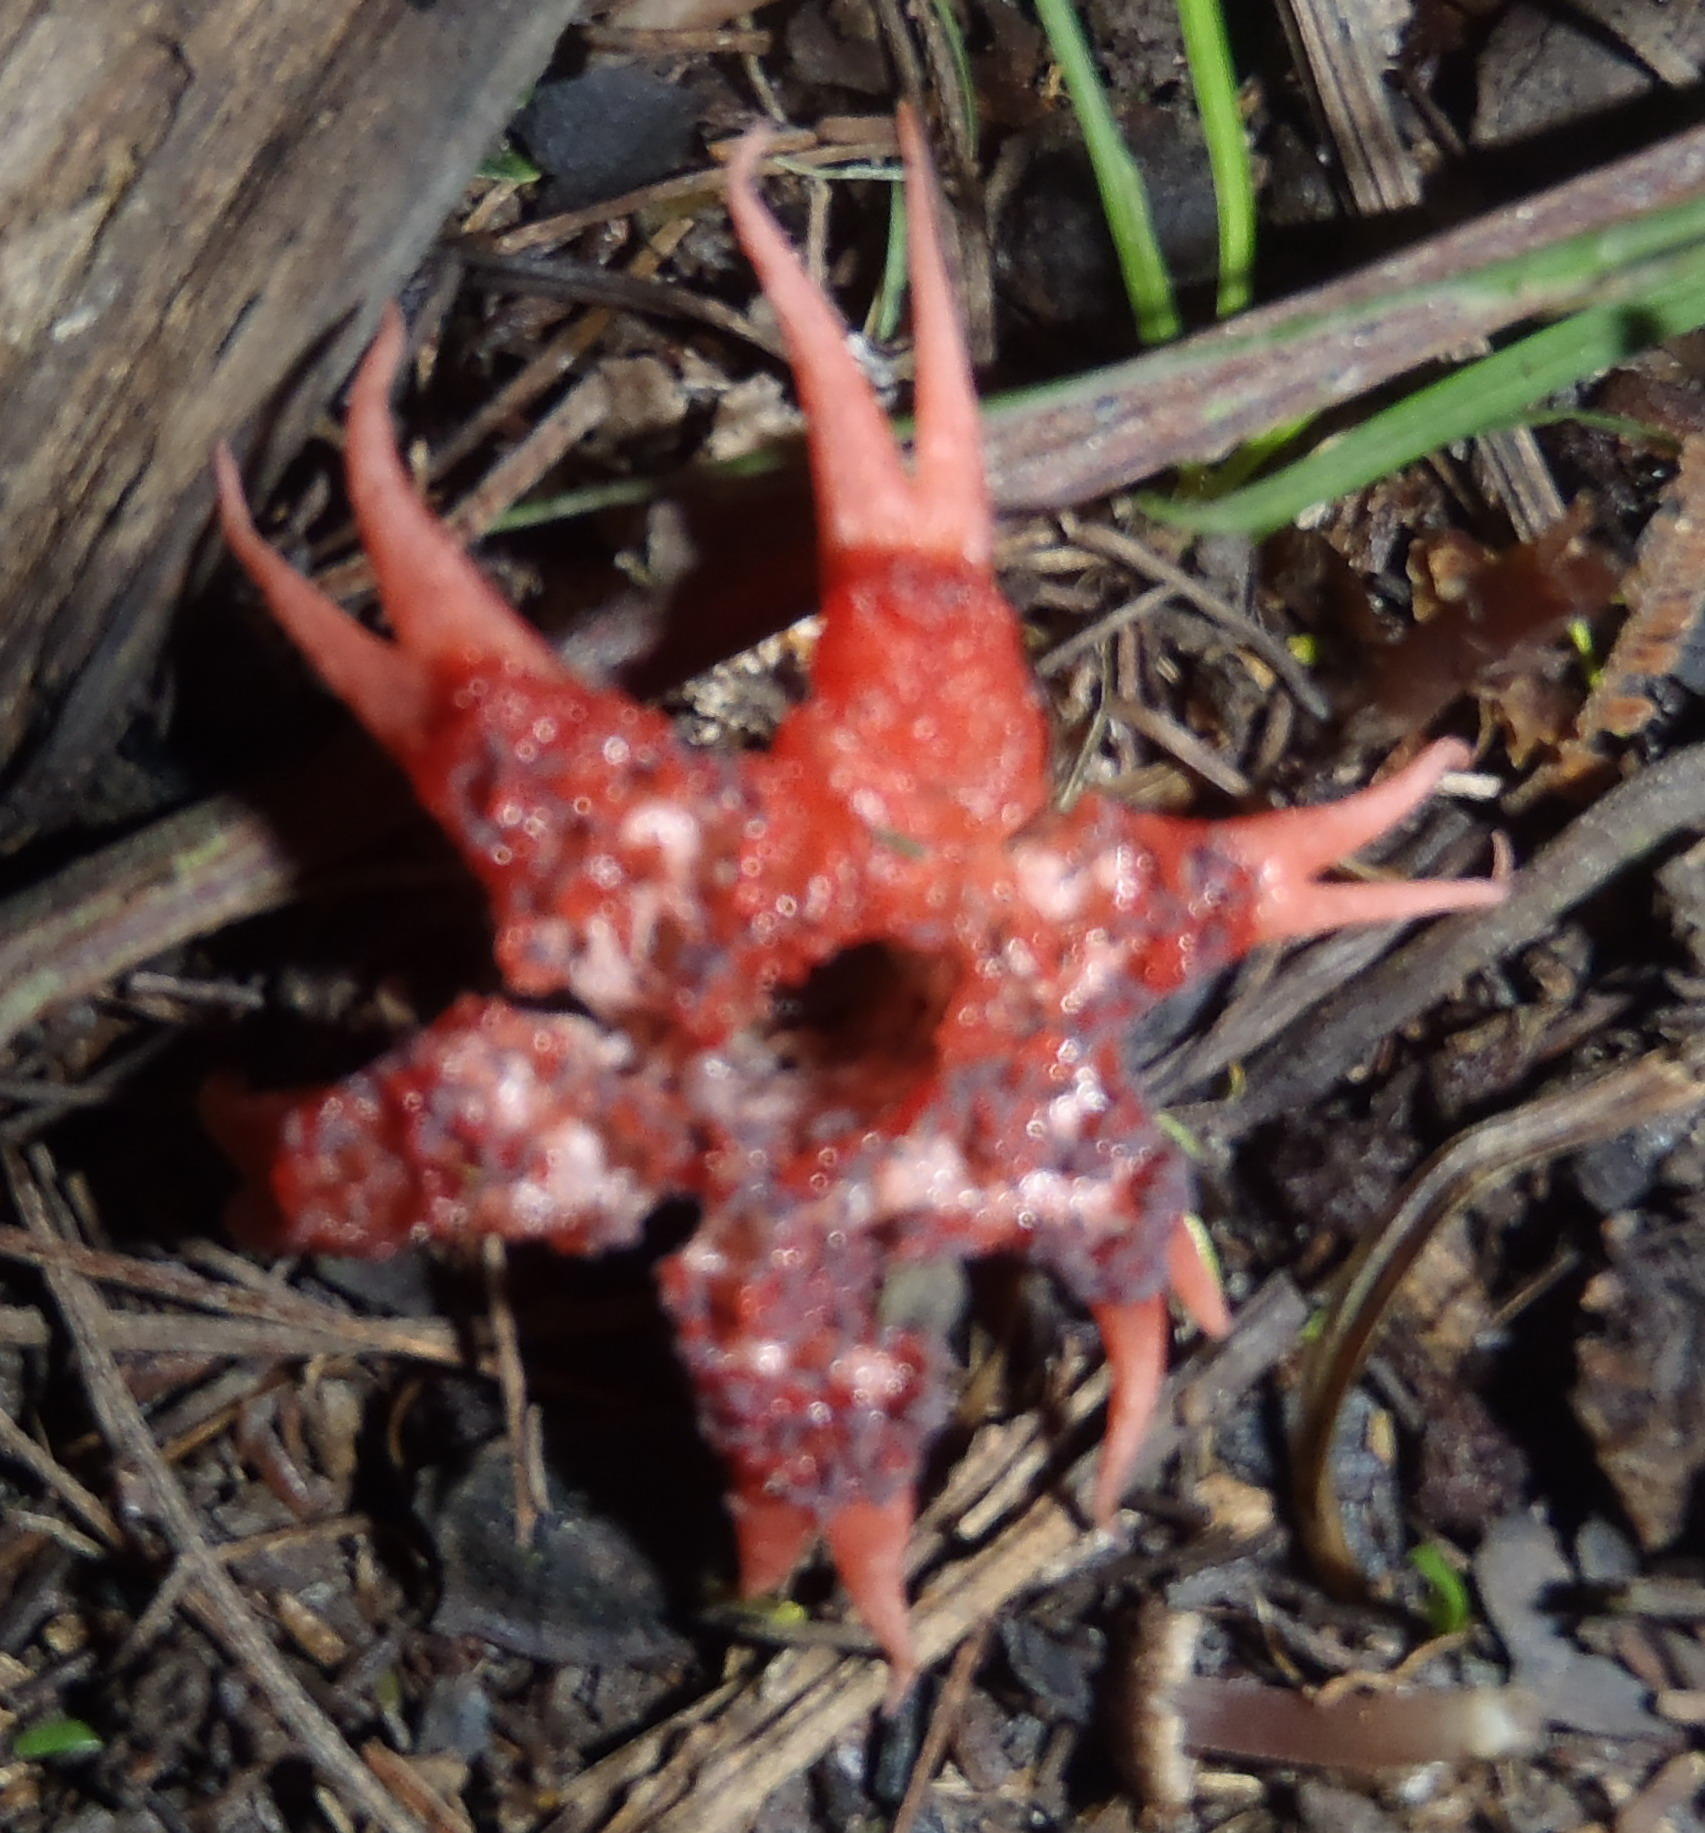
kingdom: Fungi
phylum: Basidiomycota
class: Agaricomycetes
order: Phallales
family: Phallaceae
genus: Aseroe
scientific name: Aseroe rubra
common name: Starfish fungus
